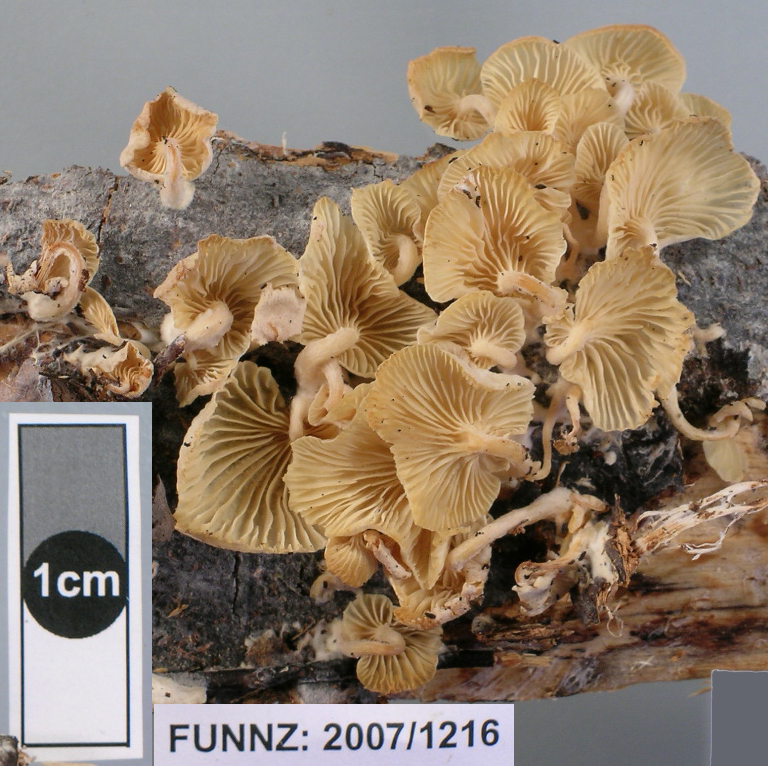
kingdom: Fungi
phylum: Basidiomycota
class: Agaricomycetes
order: Agaricales
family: Tricholomataceae
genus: Rhizocybe
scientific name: Rhizocybe albida
